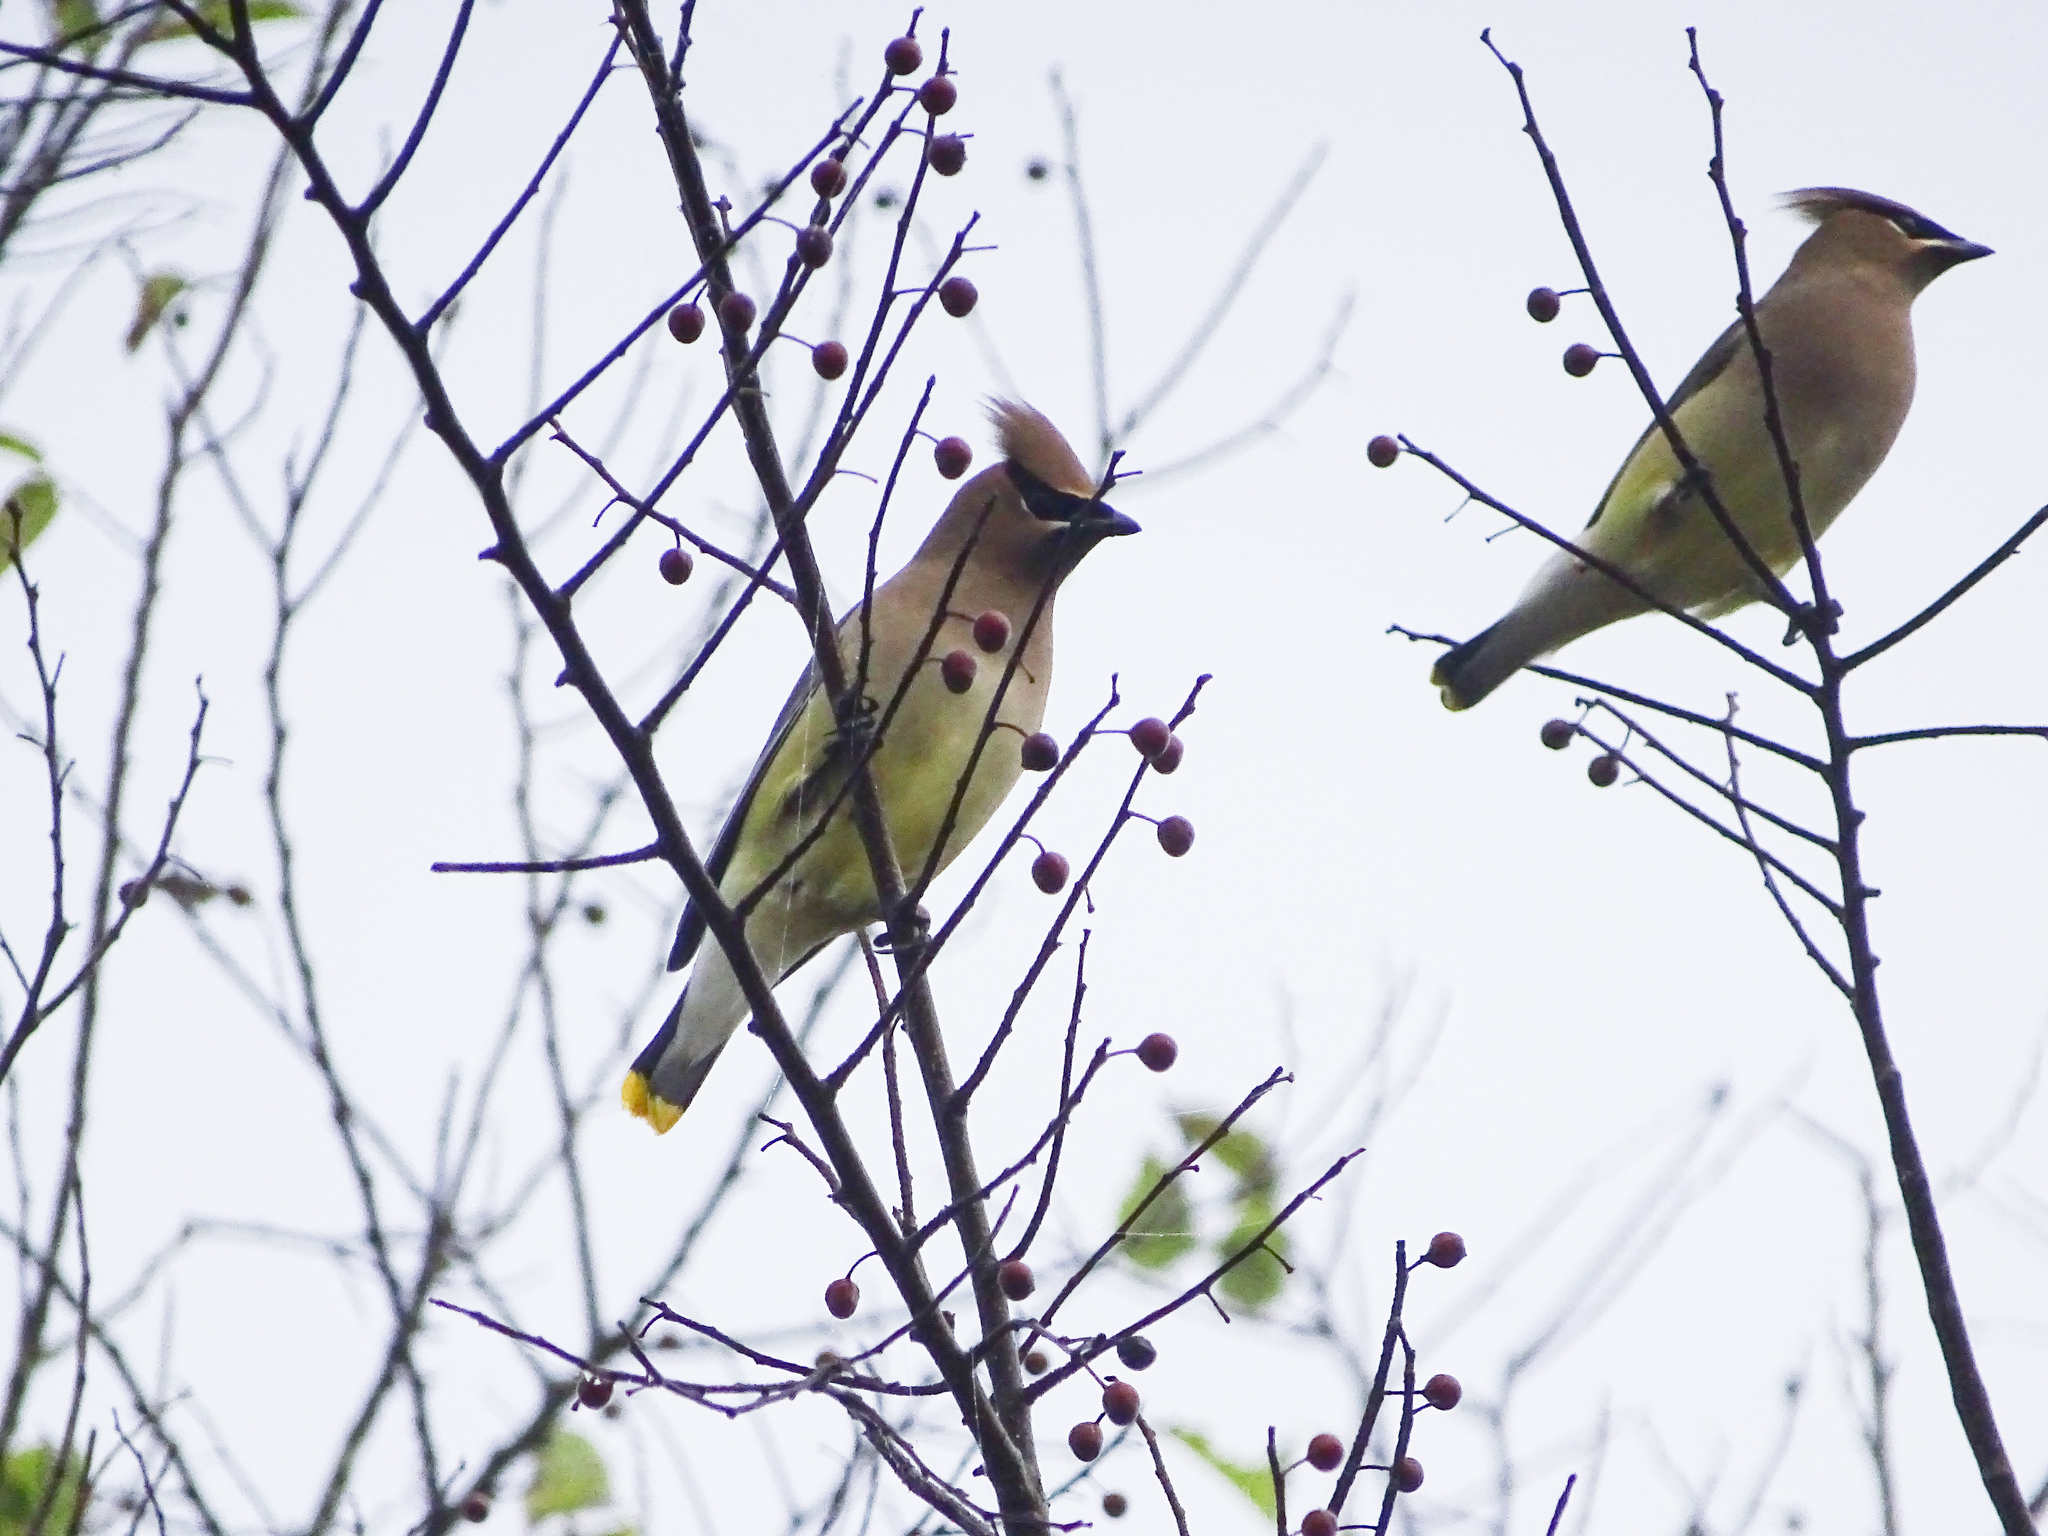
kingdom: Animalia
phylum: Chordata
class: Aves
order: Passeriformes
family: Bombycillidae
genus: Bombycilla
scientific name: Bombycilla cedrorum
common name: Cedar waxwing
